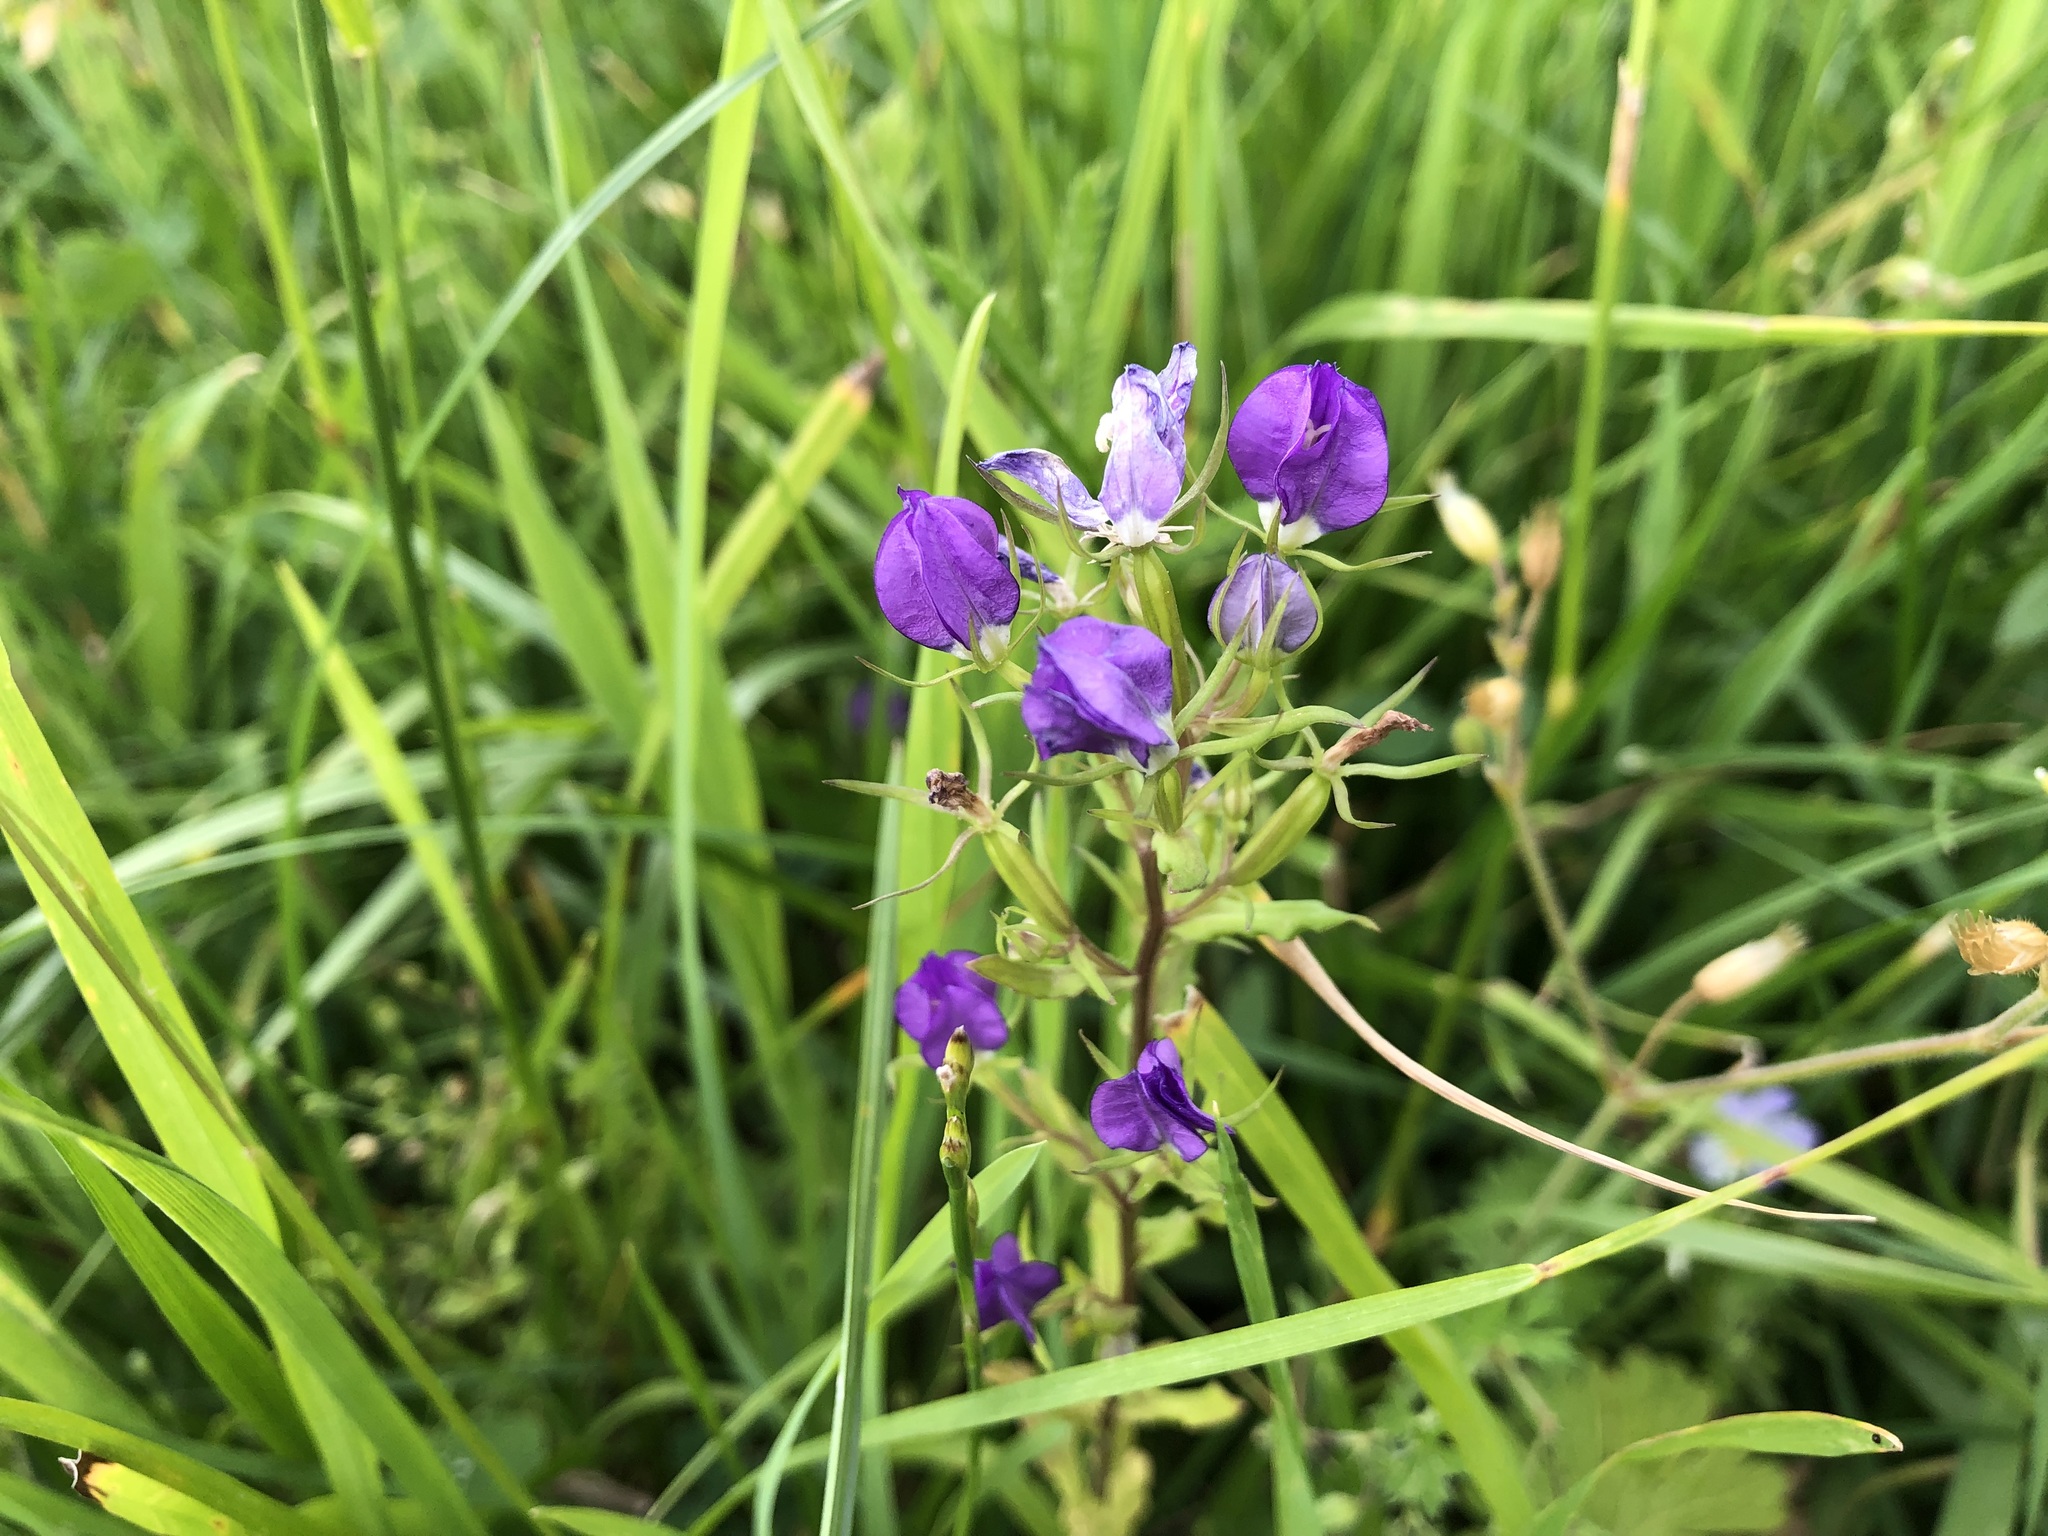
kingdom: Plantae
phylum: Tracheophyta
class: Magnoliopsida
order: Asterales
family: Campanulaceae
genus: Legousia
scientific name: Legousia speculum-veneris
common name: Large venus's-looking-glass
